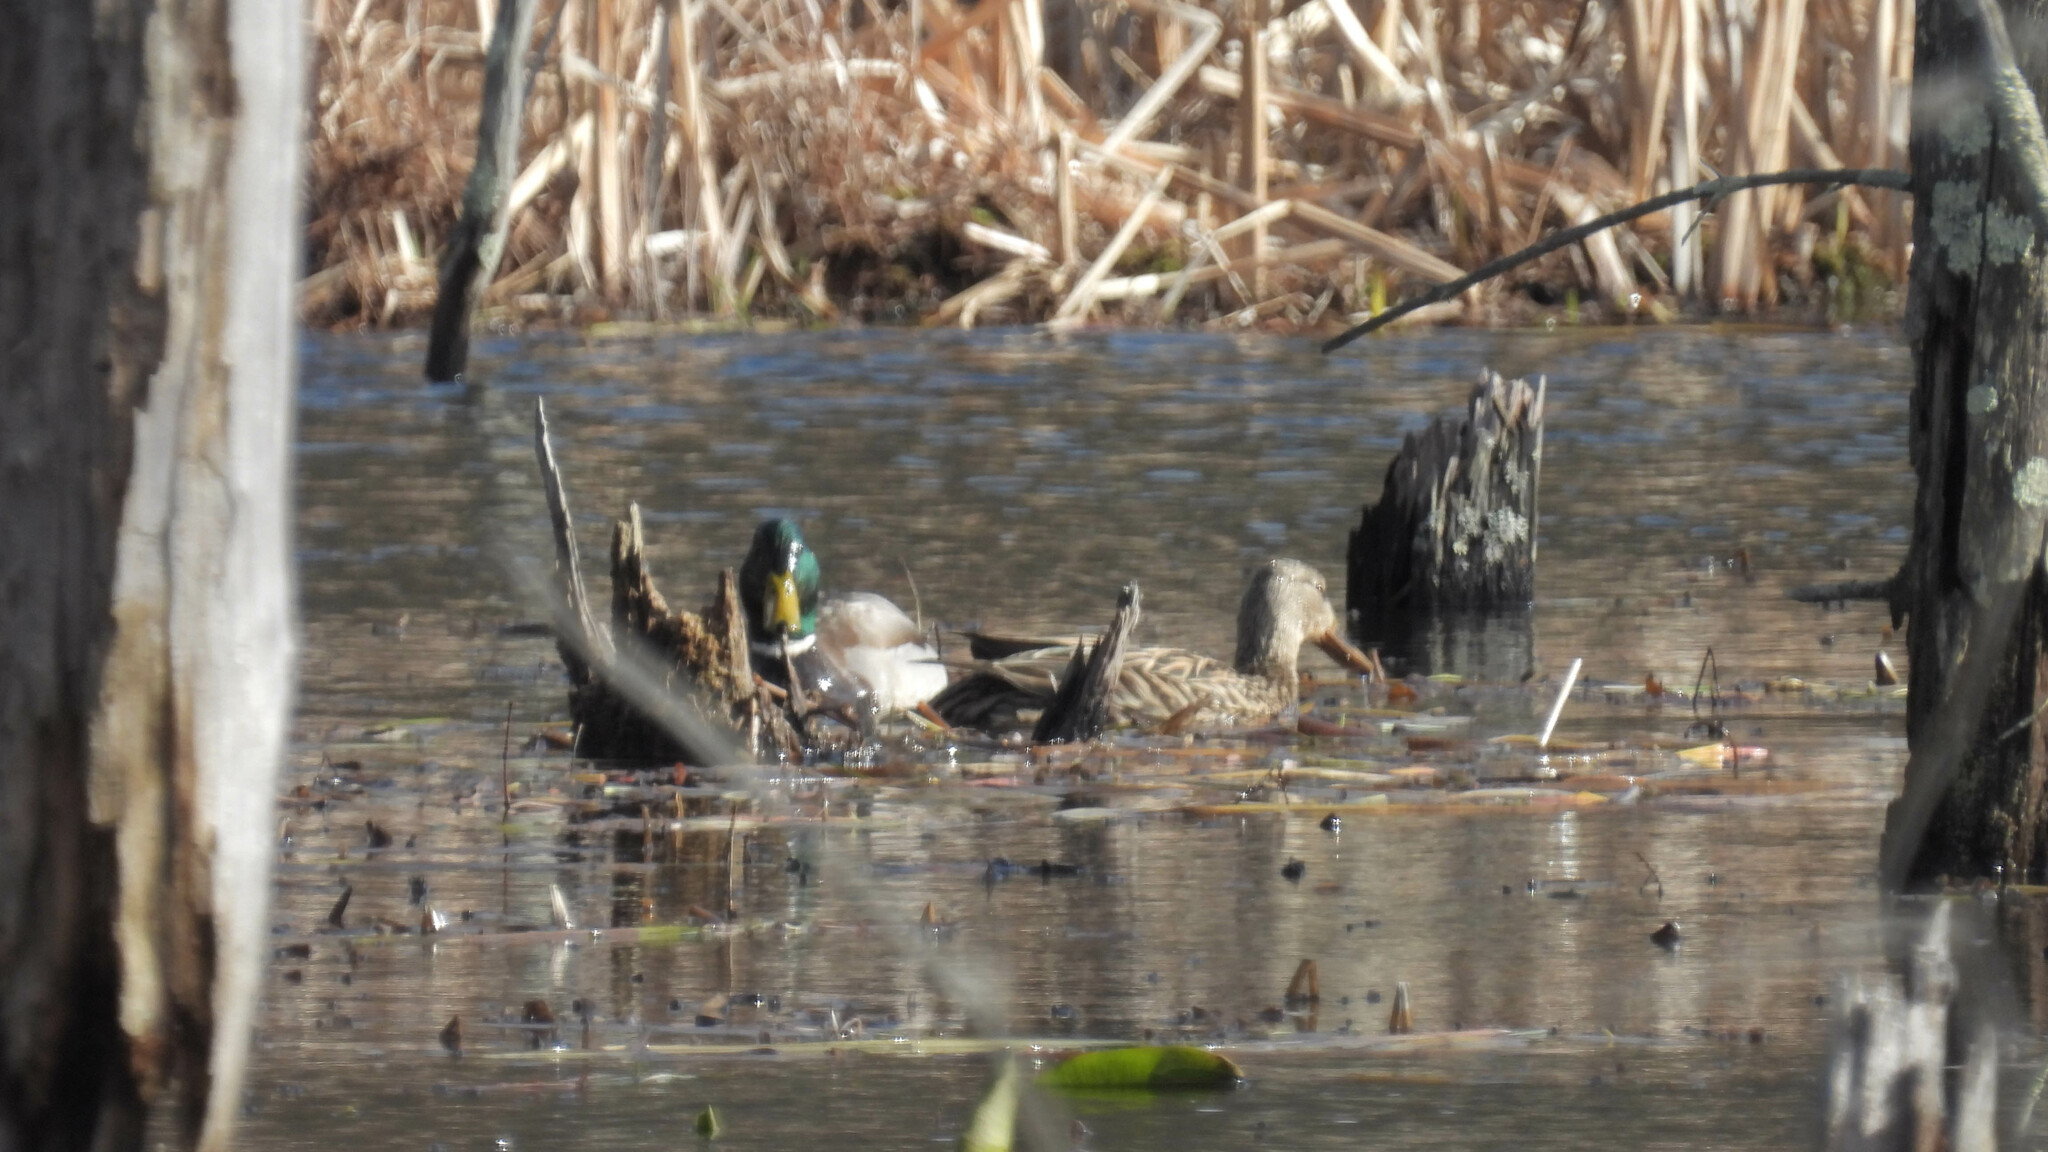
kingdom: Animalia
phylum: Chordata
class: Aves
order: Anseriformes
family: Anatidae
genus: Anas
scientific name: Anas platyrhynchos
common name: Mallard
